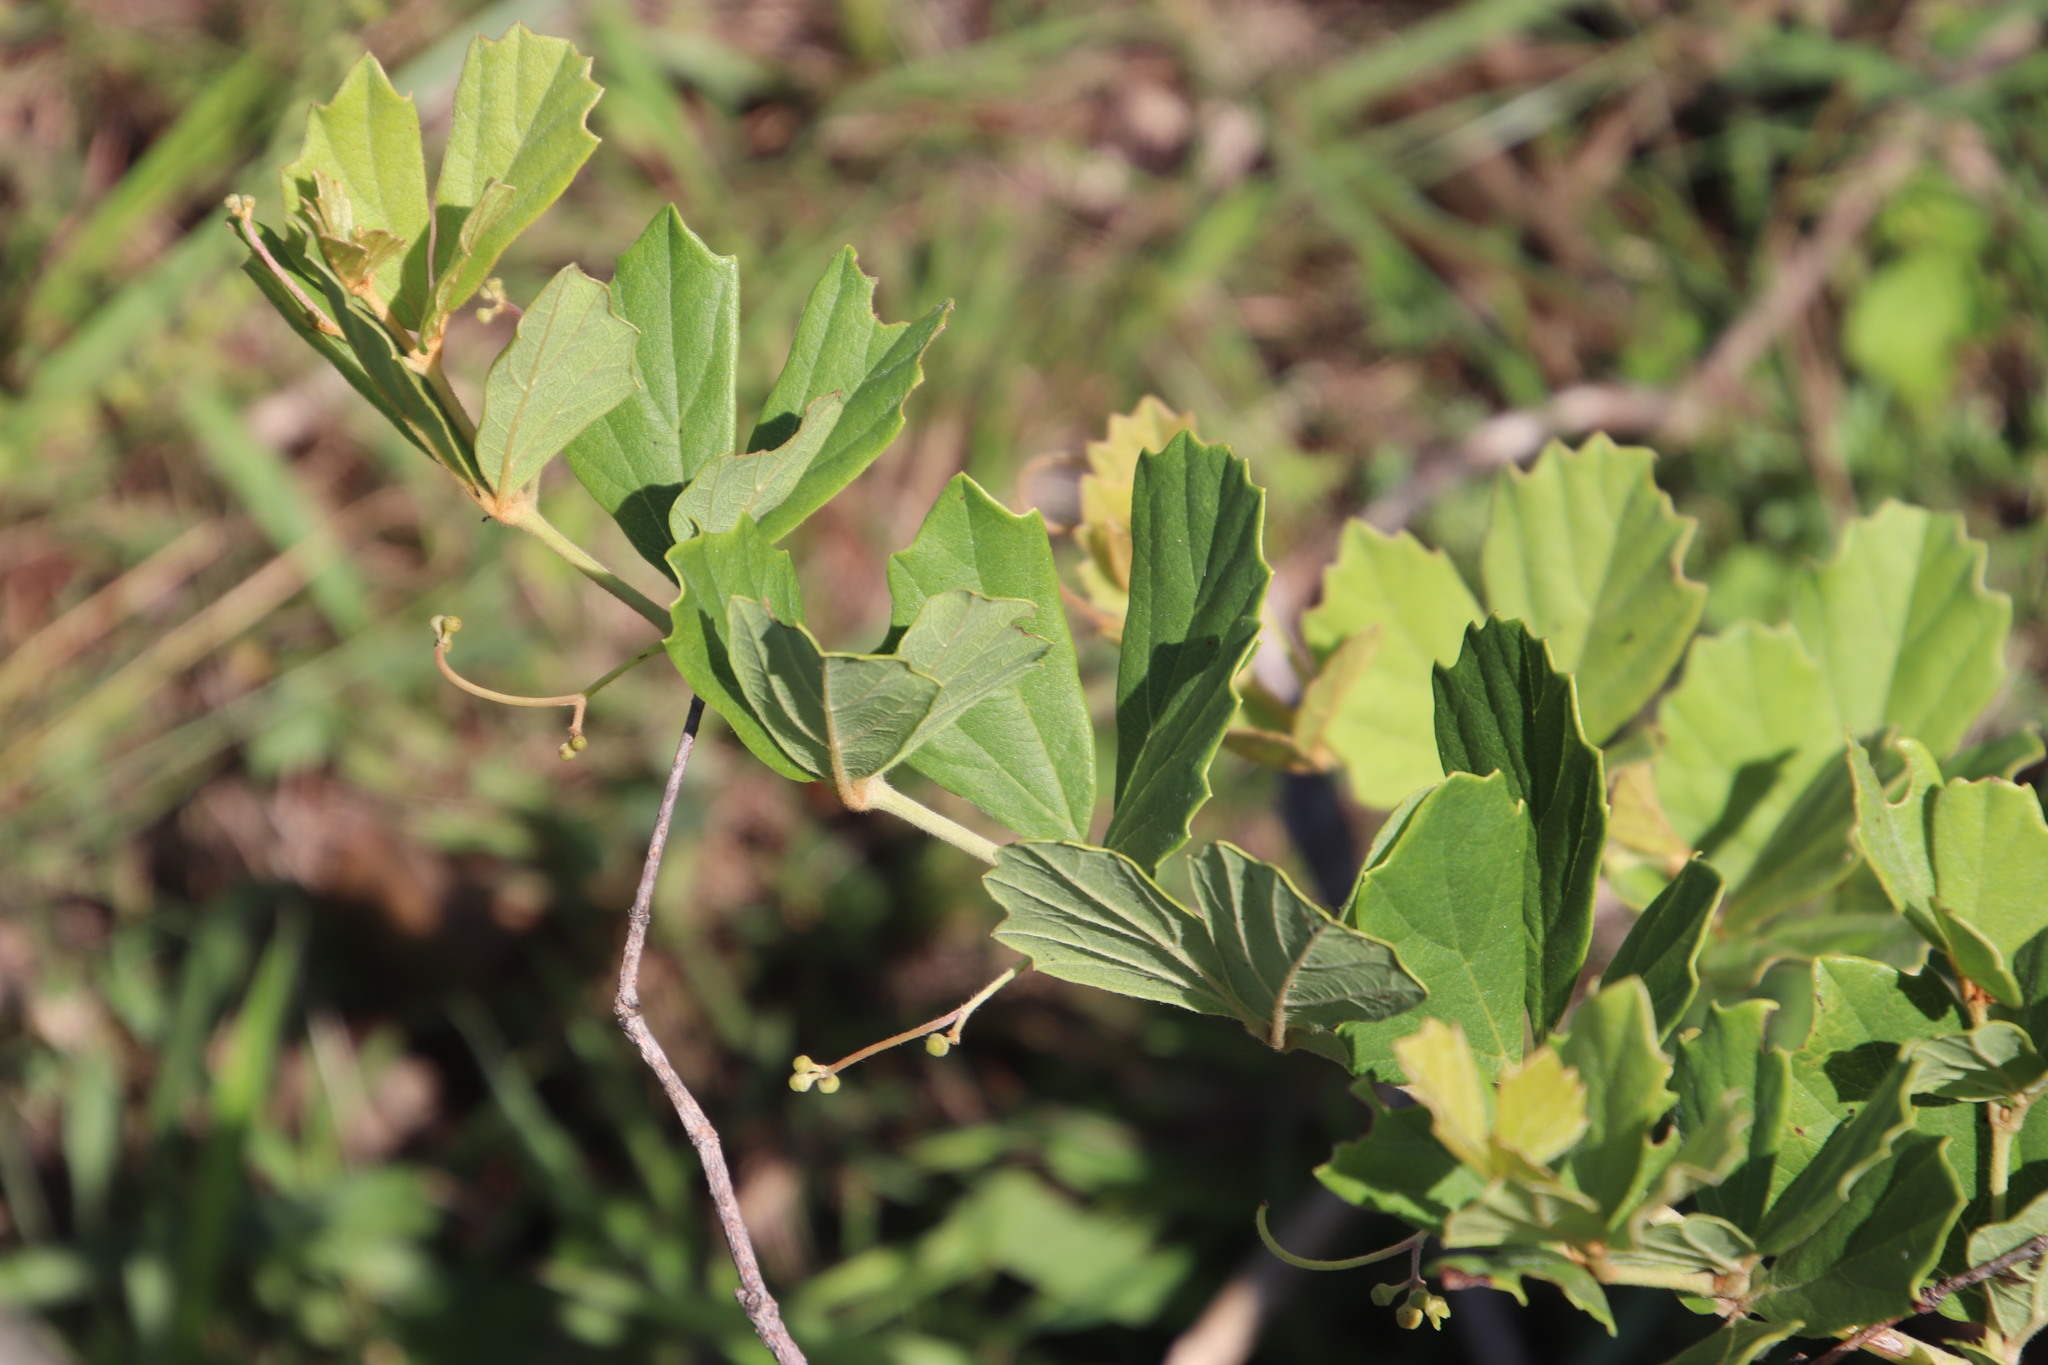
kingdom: Plantae
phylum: Tracheophyta
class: Magnoliopsida
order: Vitales
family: Vitaceae
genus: Rhoicissus
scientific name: Rhoicissus tridentata
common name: Common forest grape
